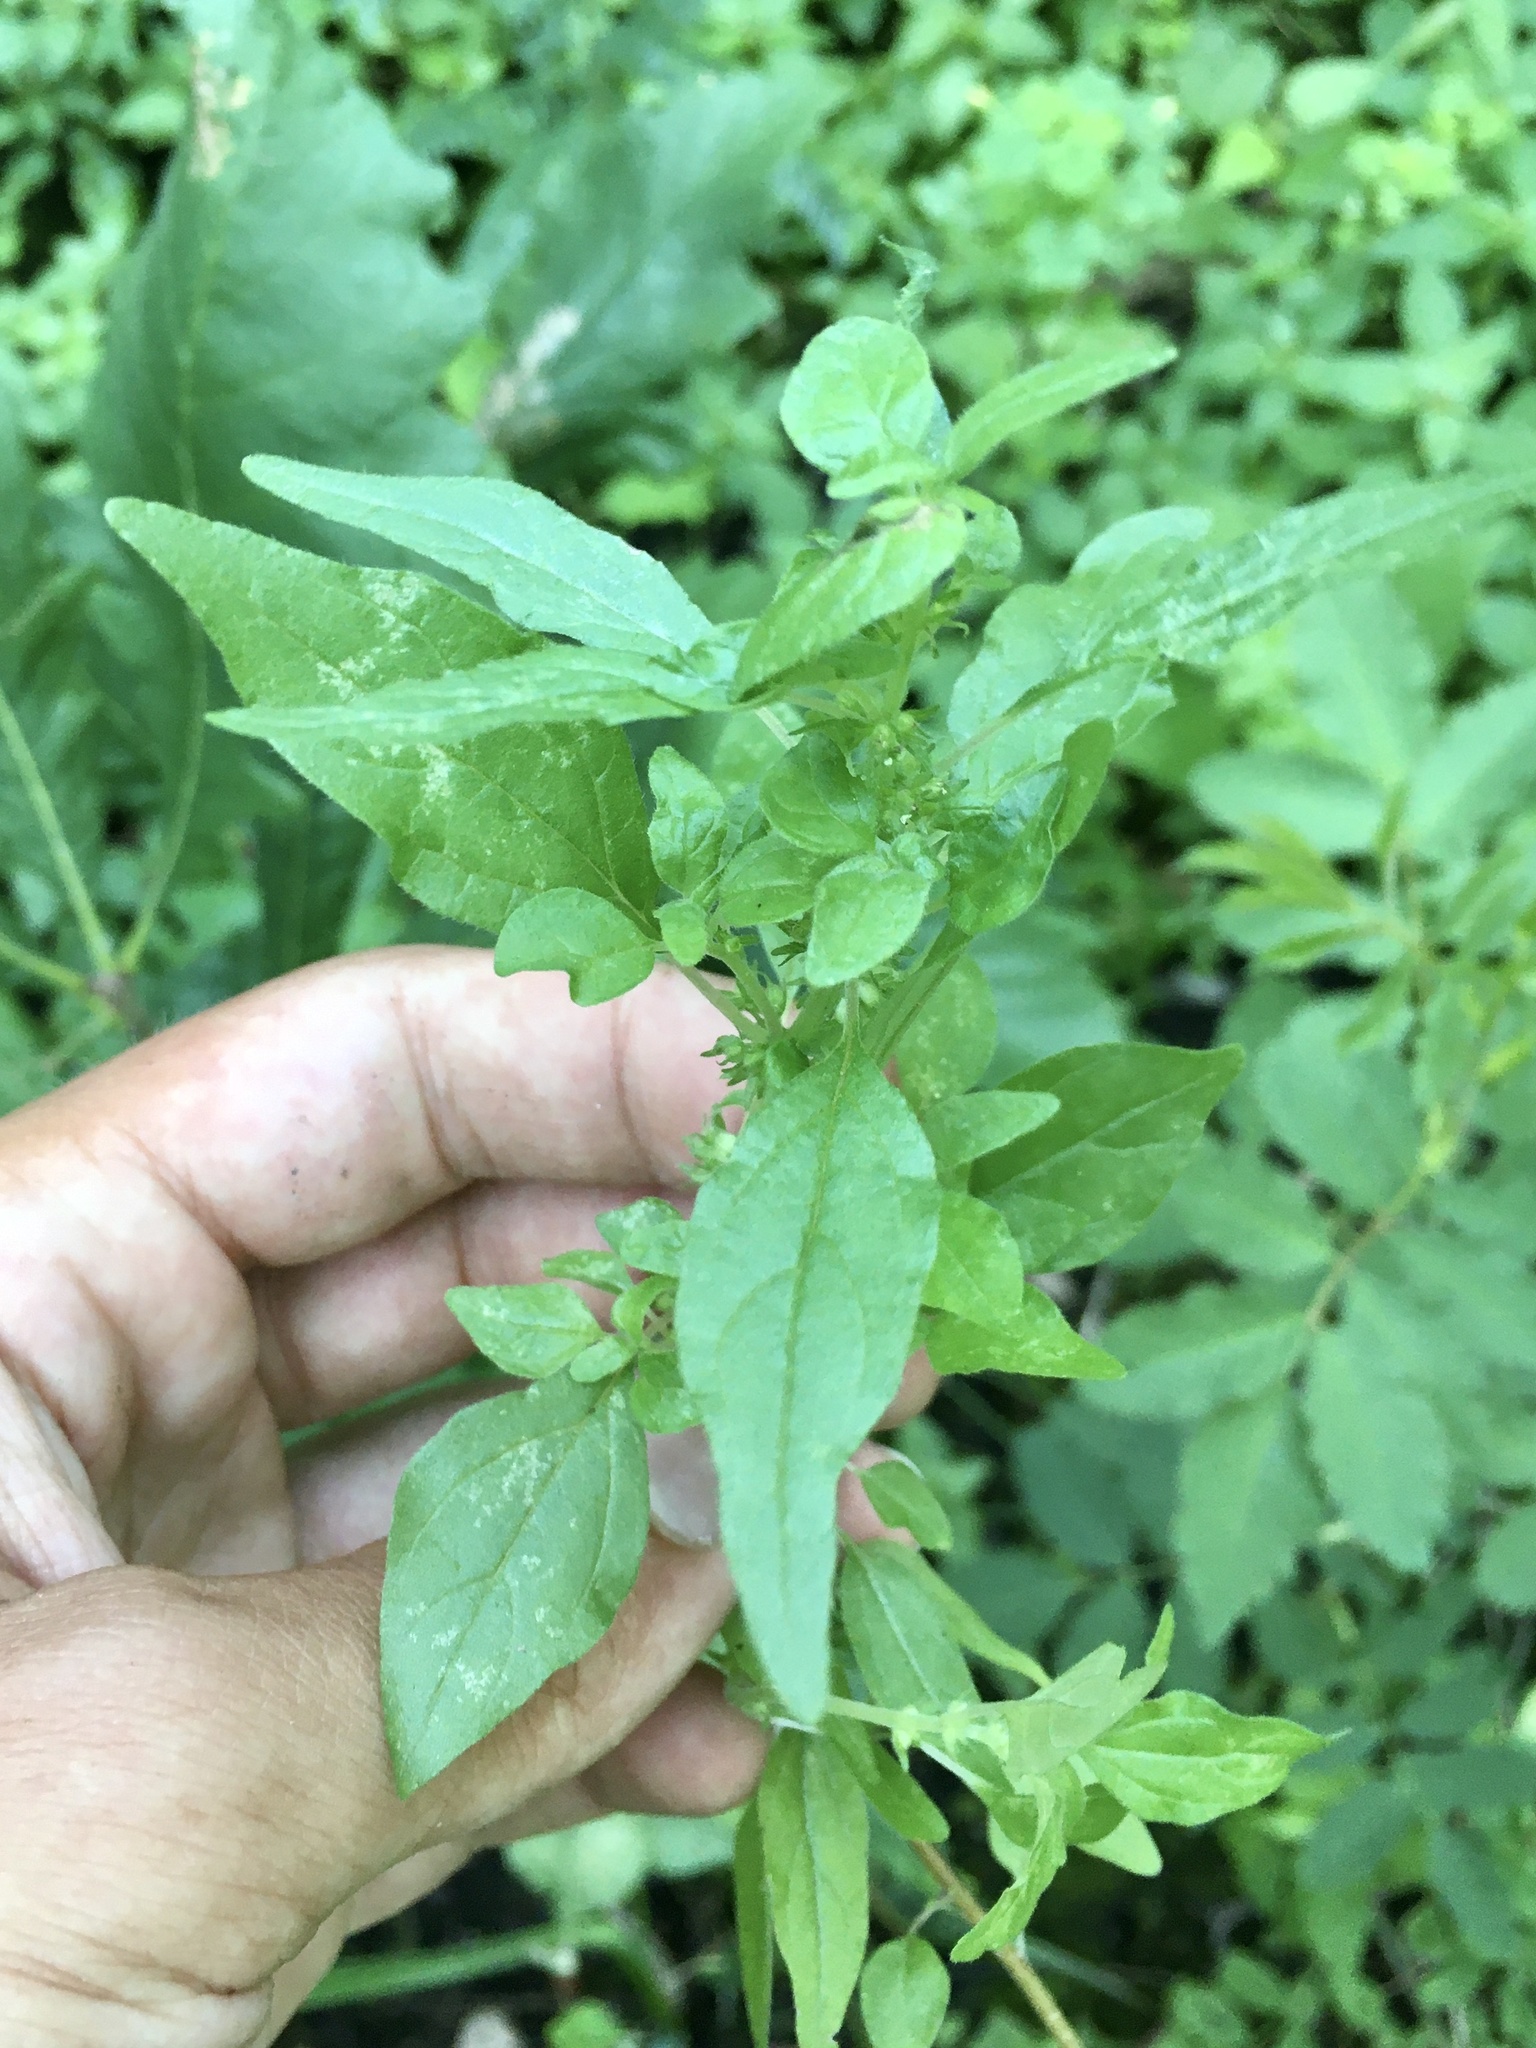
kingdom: Plantae
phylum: Tracheophyta
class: Magnoliopsida
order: Rosales
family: Urticaceae
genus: Parietaria
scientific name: Parietaria pensylvanica
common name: Pennsylvania pellitory
